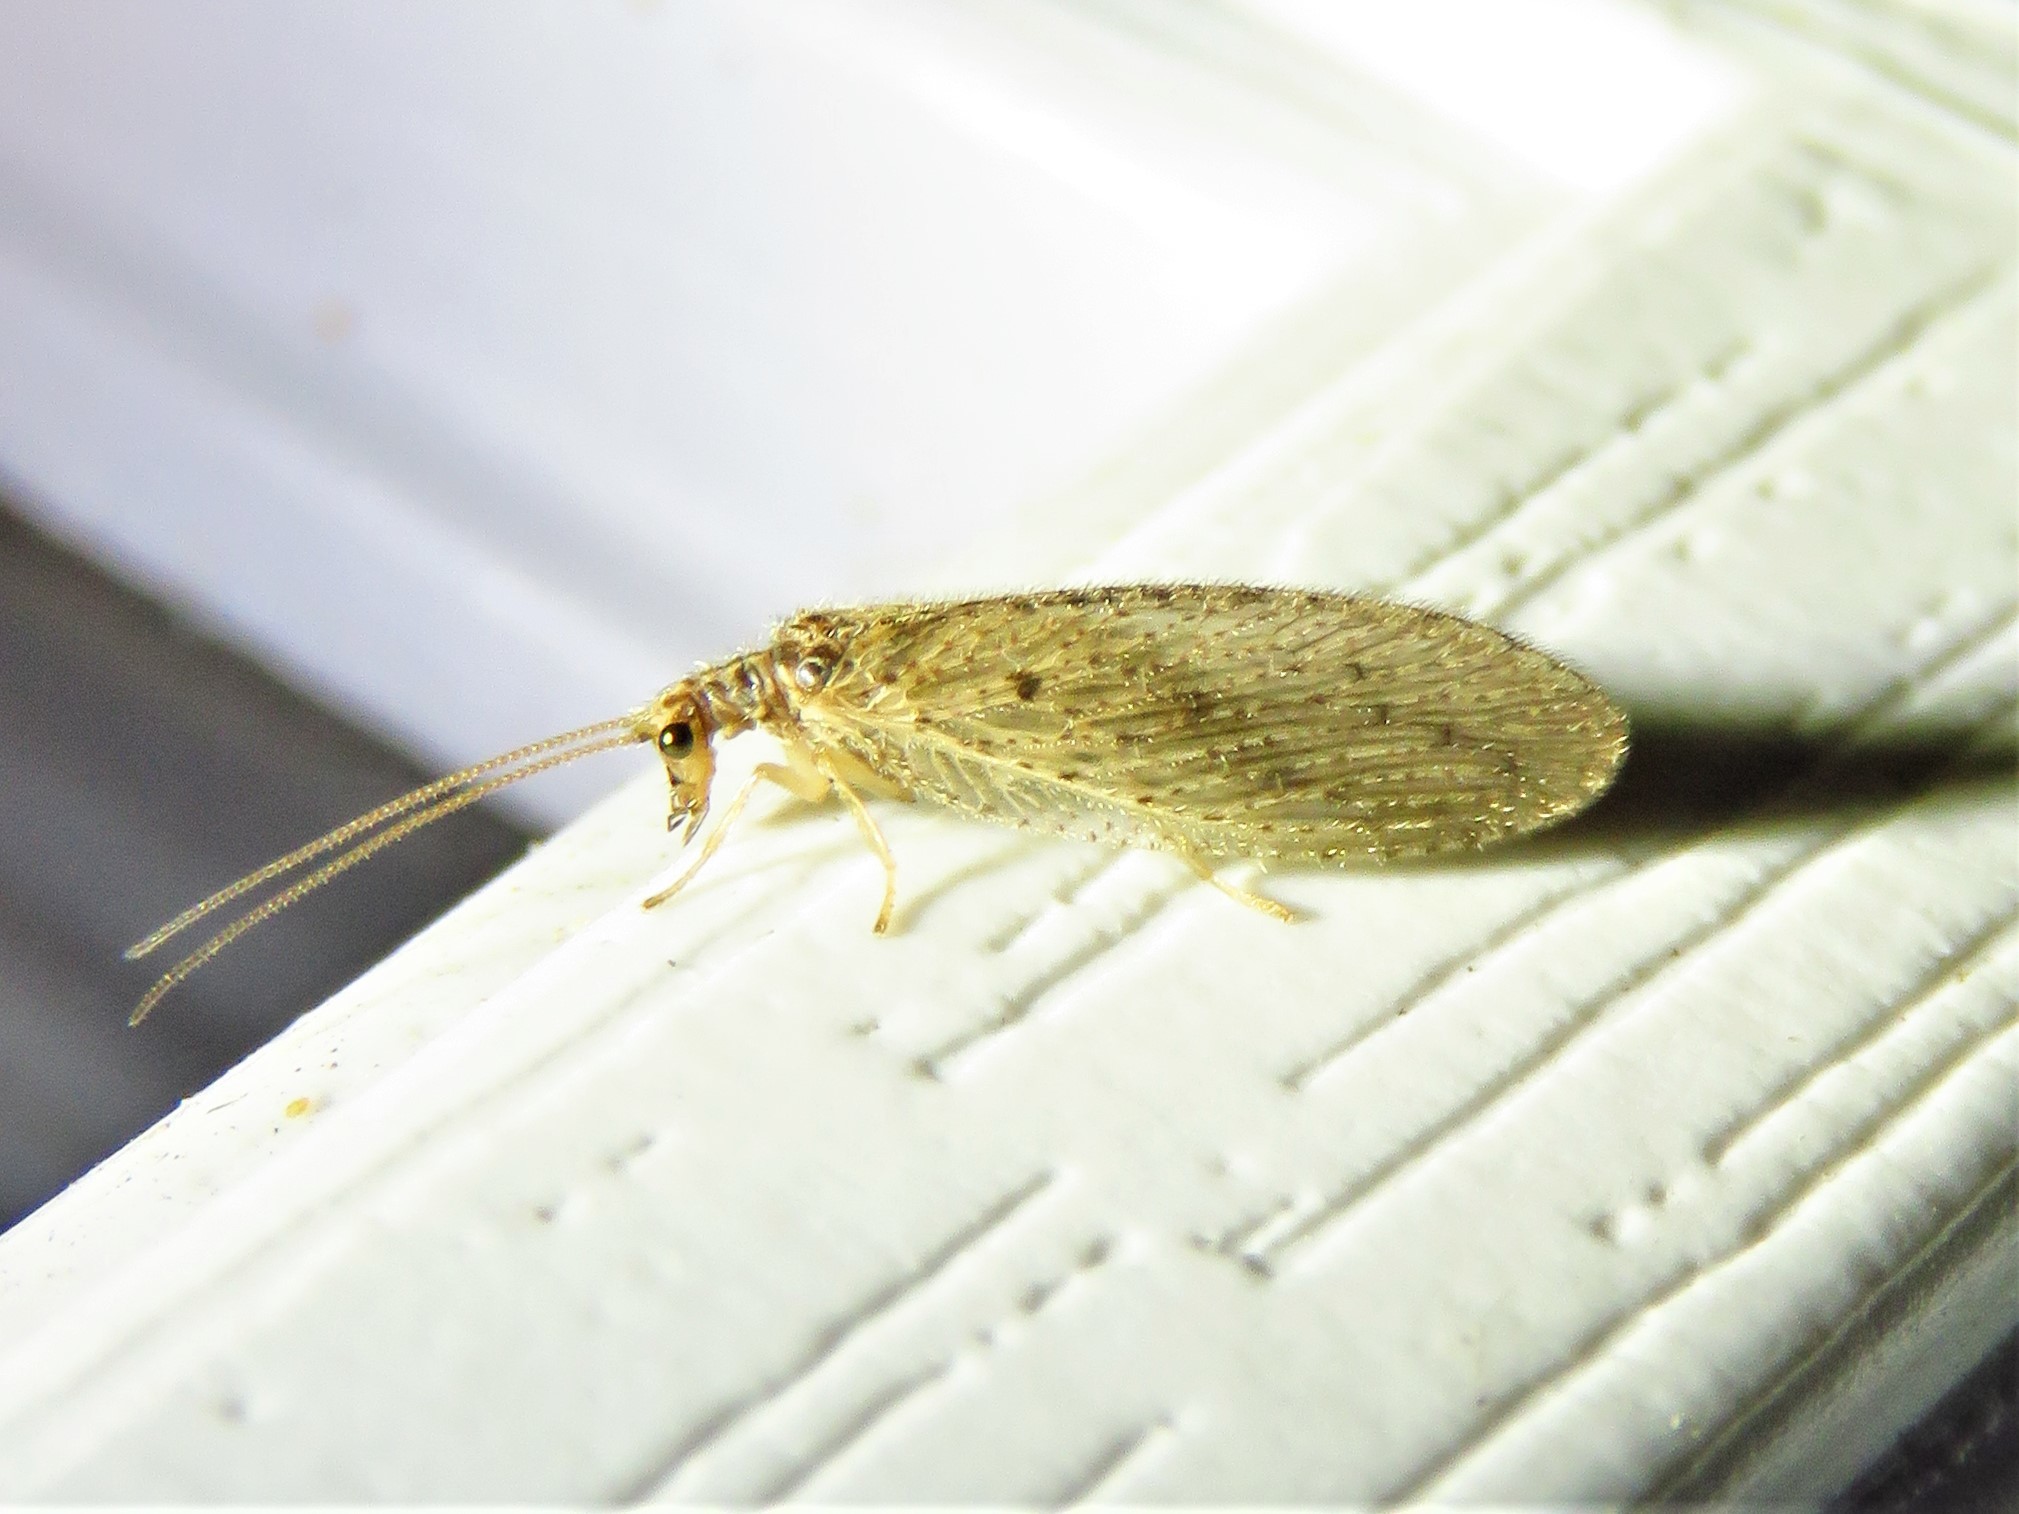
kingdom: Animalia
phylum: Arthropoda
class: Insecta
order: Neuroptera
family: Hemerobiidae
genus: Micromus
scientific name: Micromus subanticus
